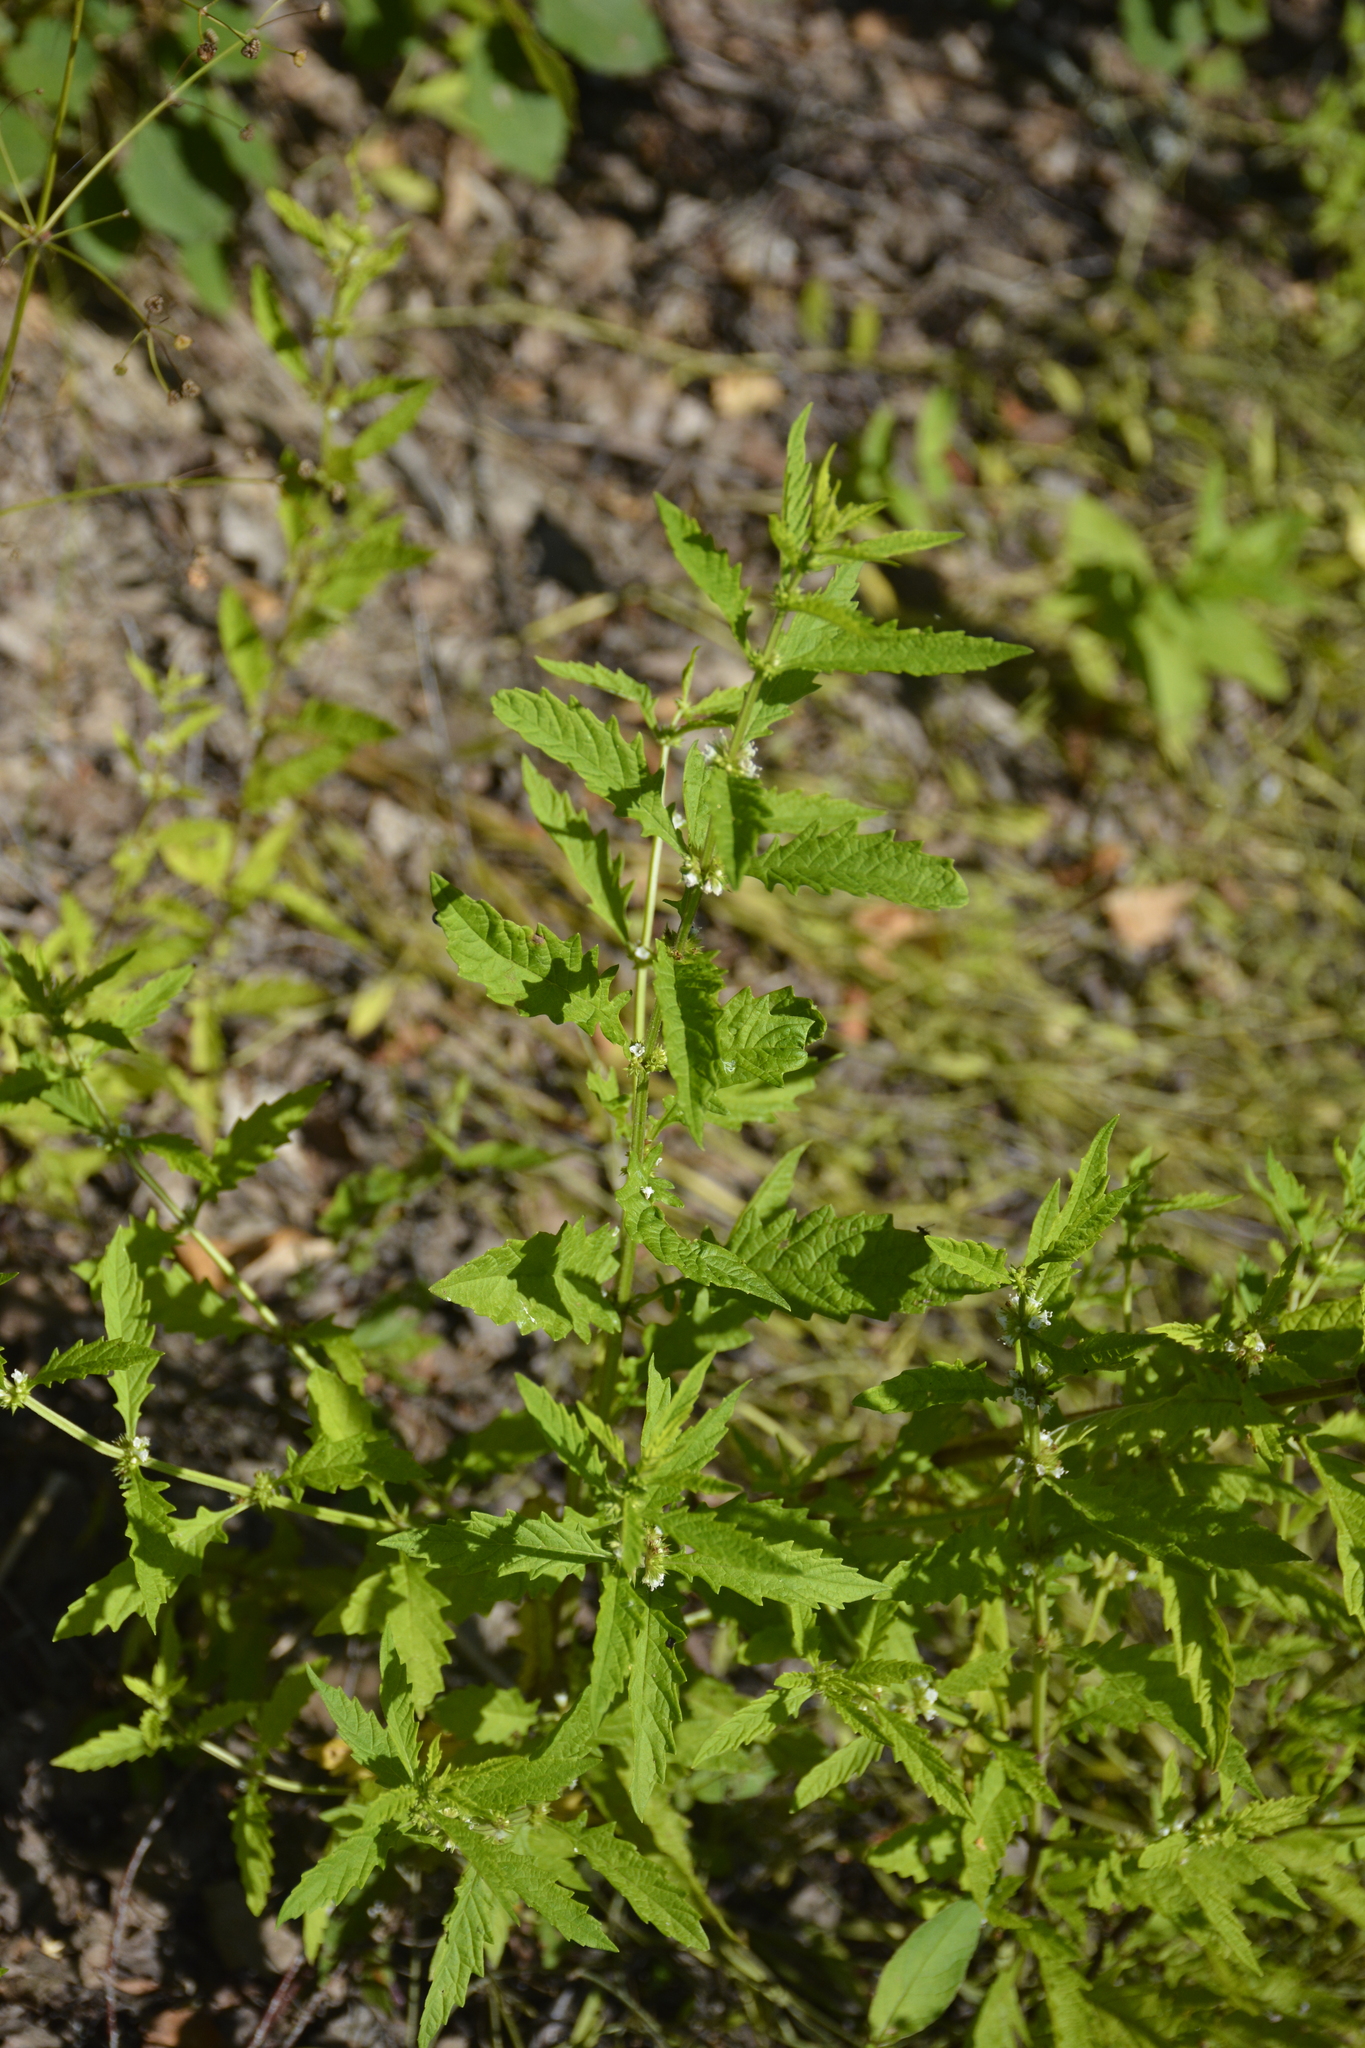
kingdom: Plantae
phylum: Tracheophyta
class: Magnoliopsida
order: Lamiales
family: Lamiaceae
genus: Lycopus
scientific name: Lycopus europaeus
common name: European bugleweed
